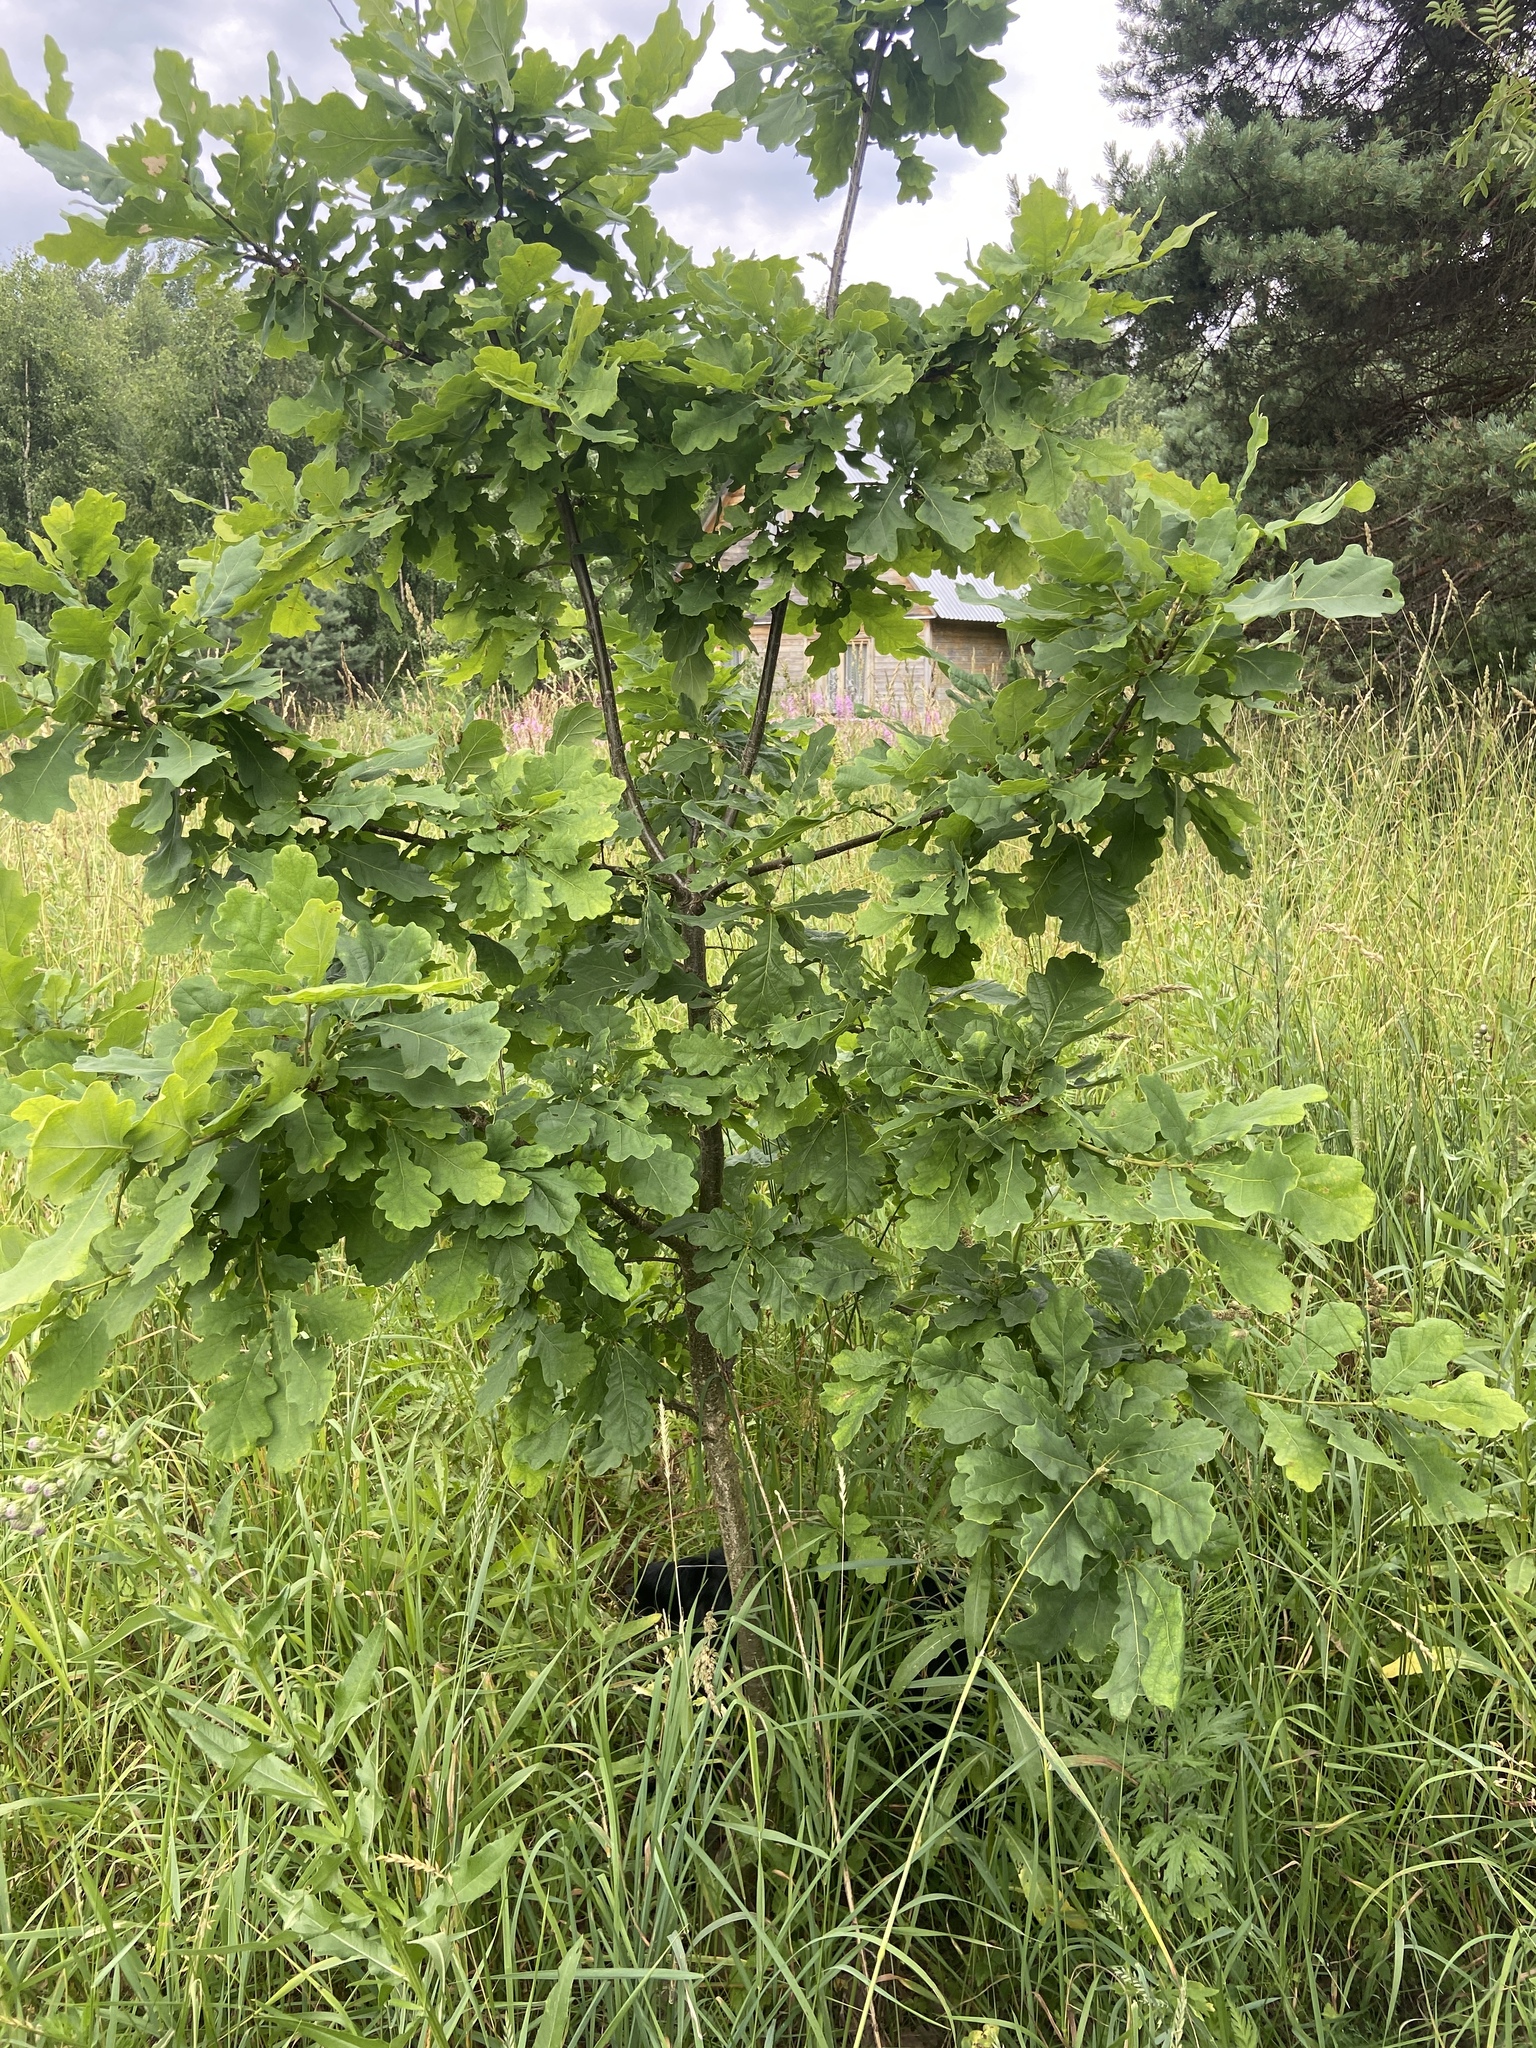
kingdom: Plantae
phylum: Tracheophyta
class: Magnoliopsida
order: Fagales
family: Fagaceae
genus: Quercus
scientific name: Quercus robur
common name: Pedunculate oak
